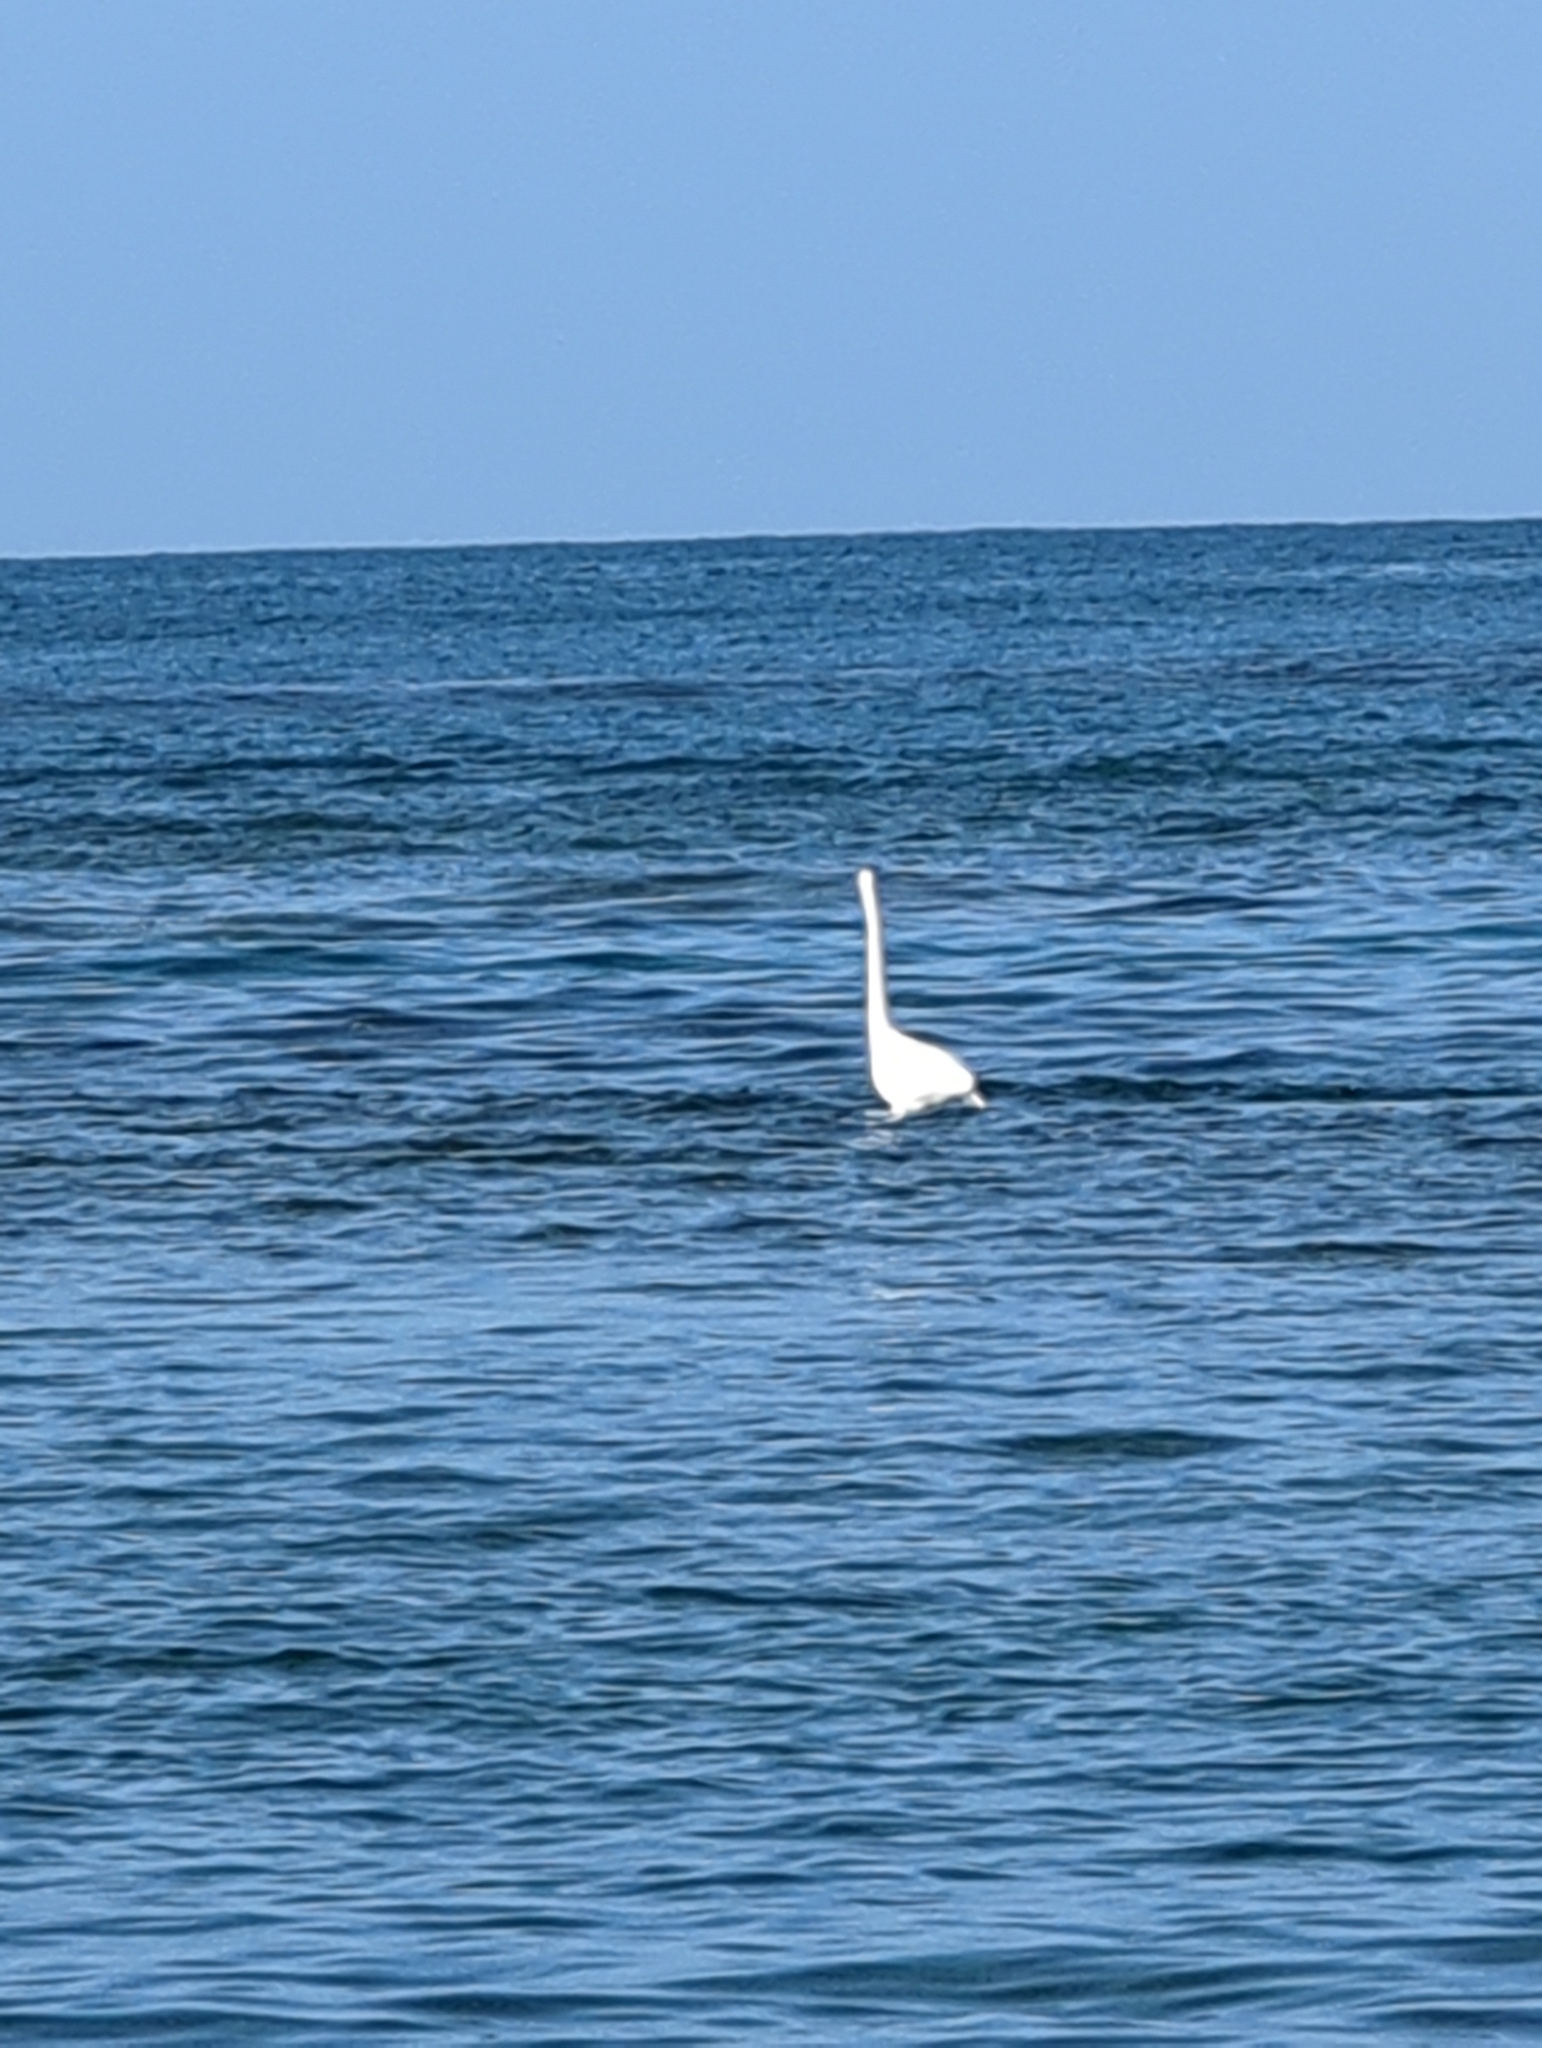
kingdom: Animalia
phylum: Chordata
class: Aves
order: Pelecaniformes
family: Ardeidae
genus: Ardea
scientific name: Ardea alba
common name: Great egret
